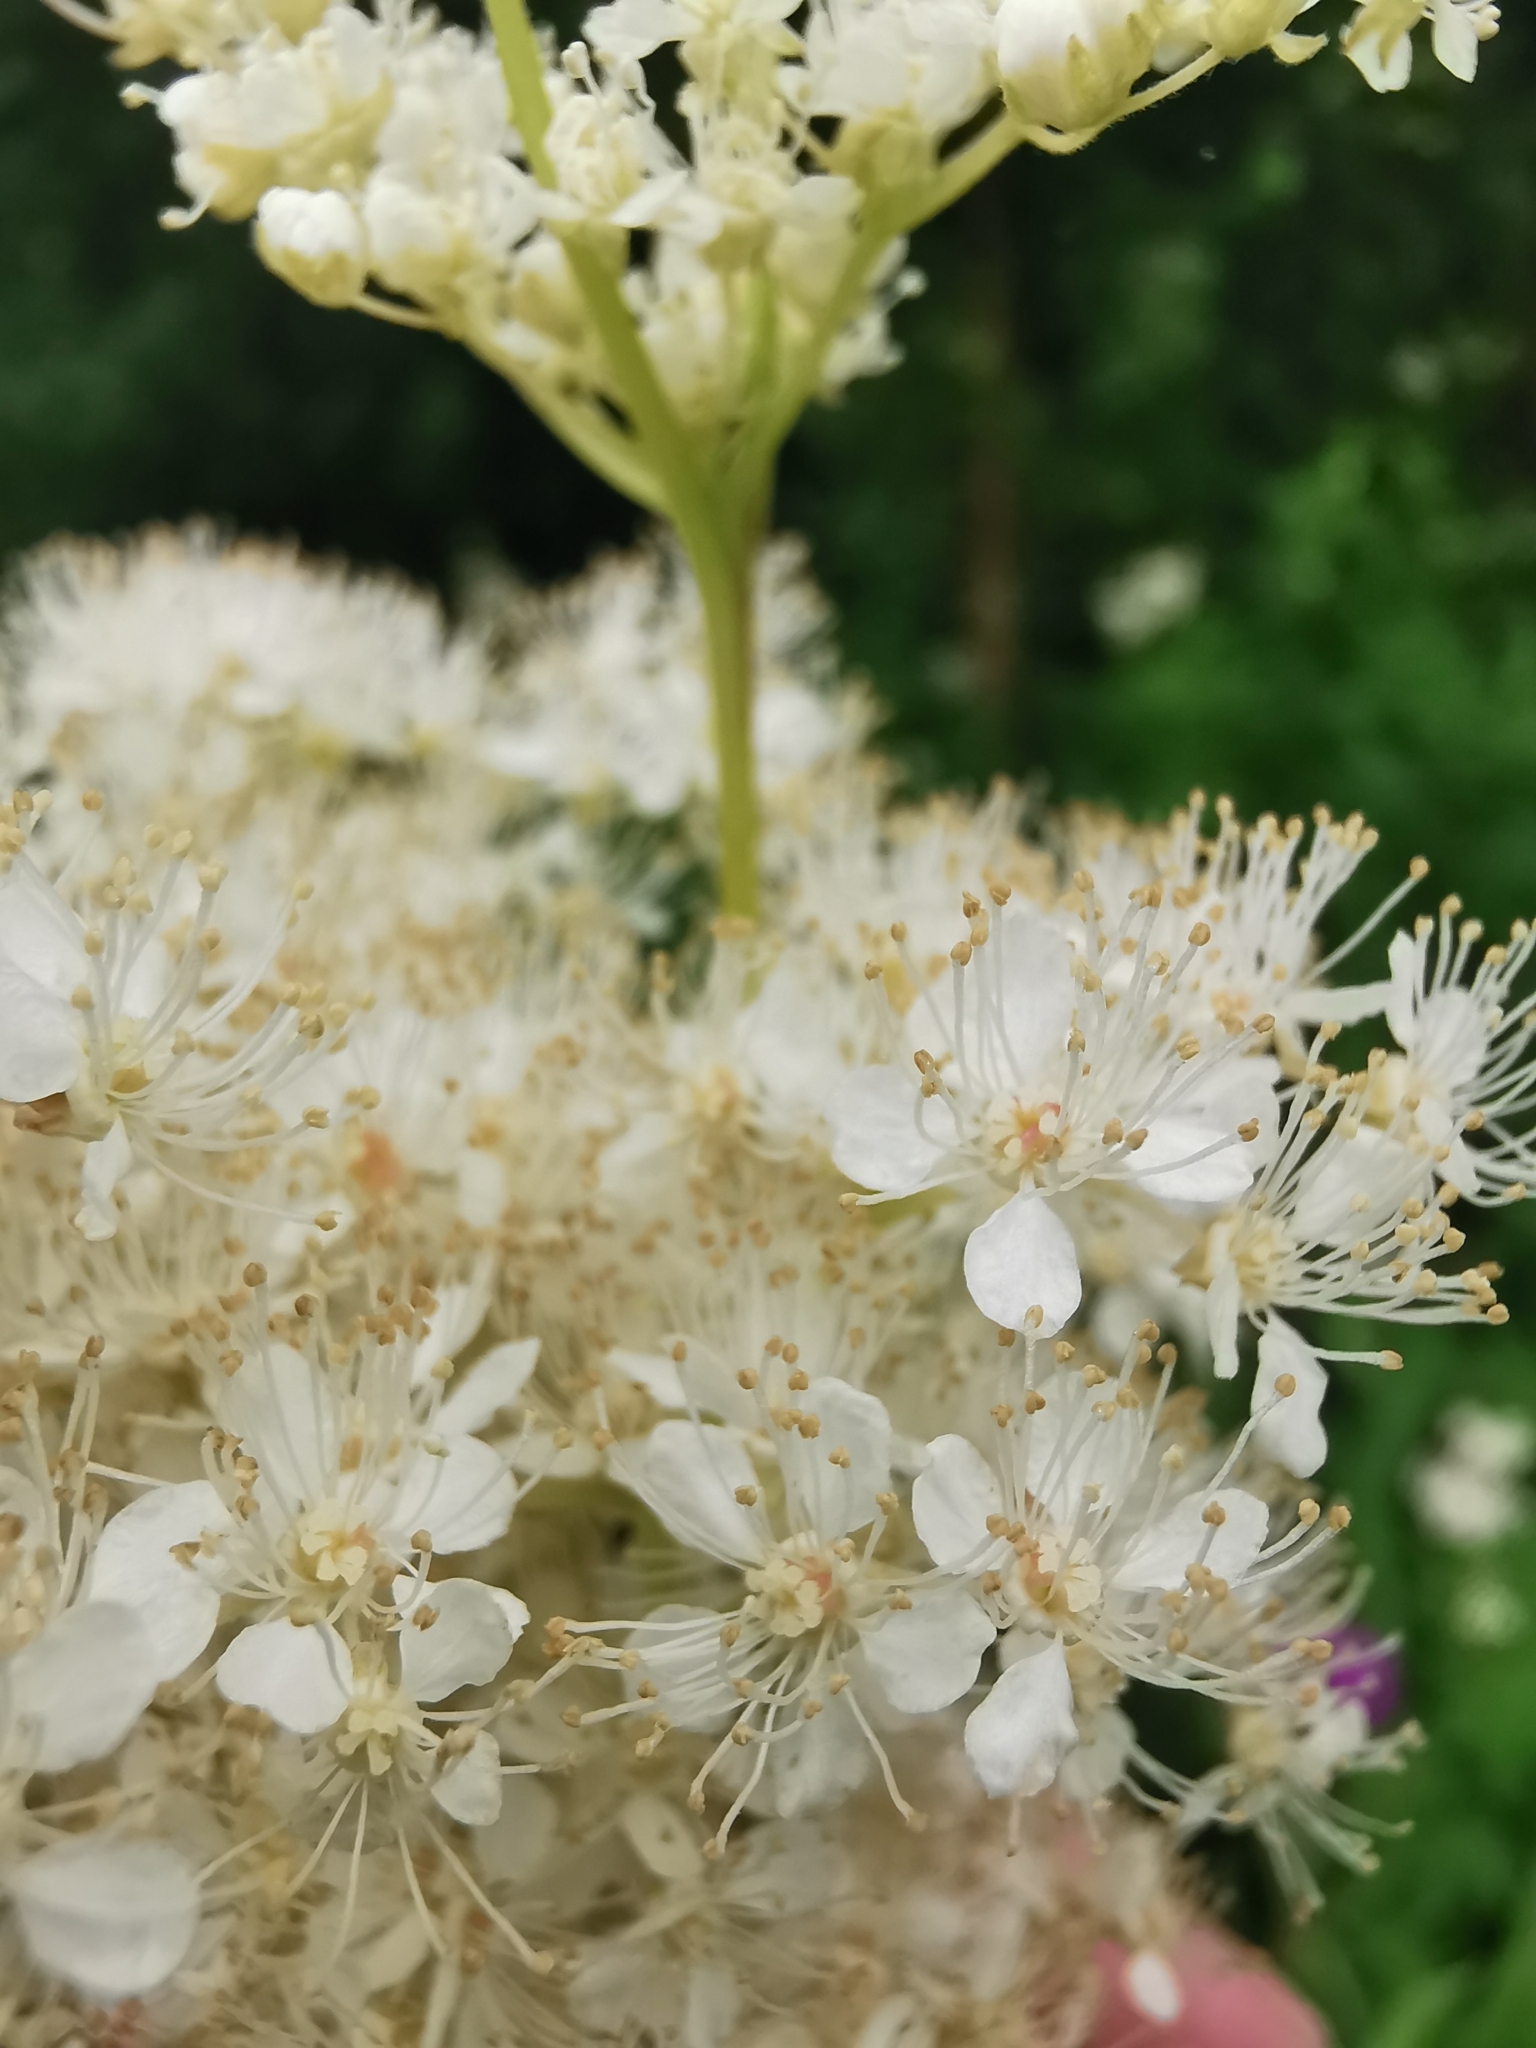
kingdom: Plantae
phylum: Tracheophyta
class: Magnoliopsida
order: Rosales
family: Rosaceae
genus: Filipendula
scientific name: Filipendula ulmaria
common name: Meadowsweet
